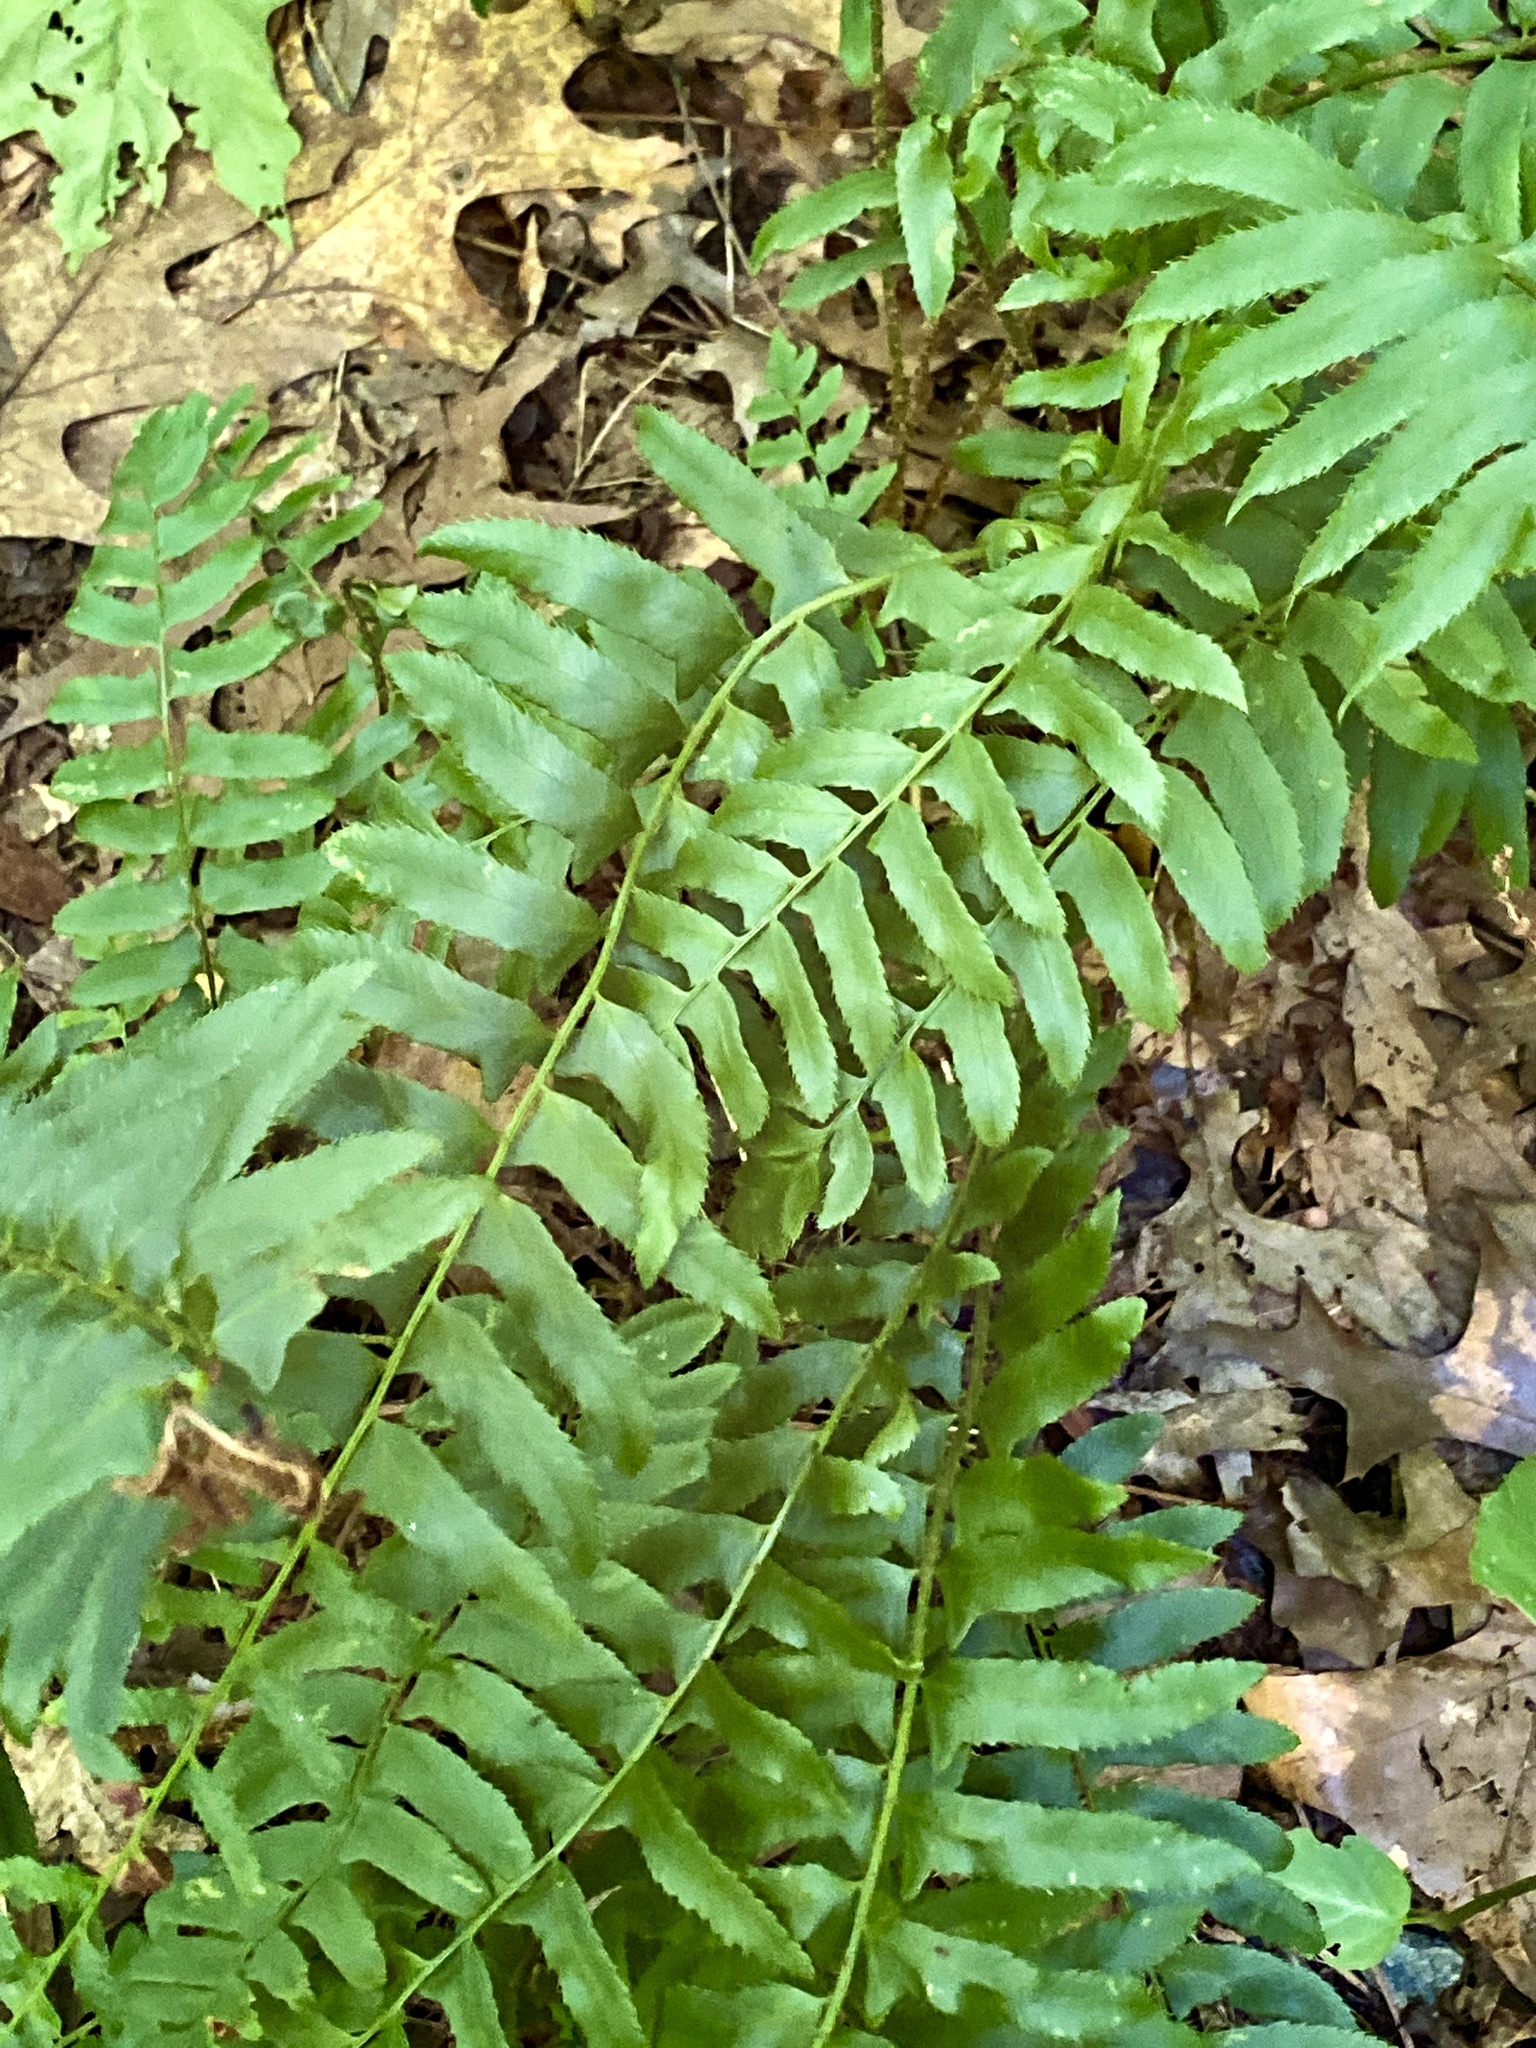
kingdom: Plantae
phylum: Tracheophyta
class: Polypodiopsida
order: Polypodiales
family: Dryopteridaceae
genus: Polystichum
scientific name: Polystichum acrostichoides
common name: Christmas fern
